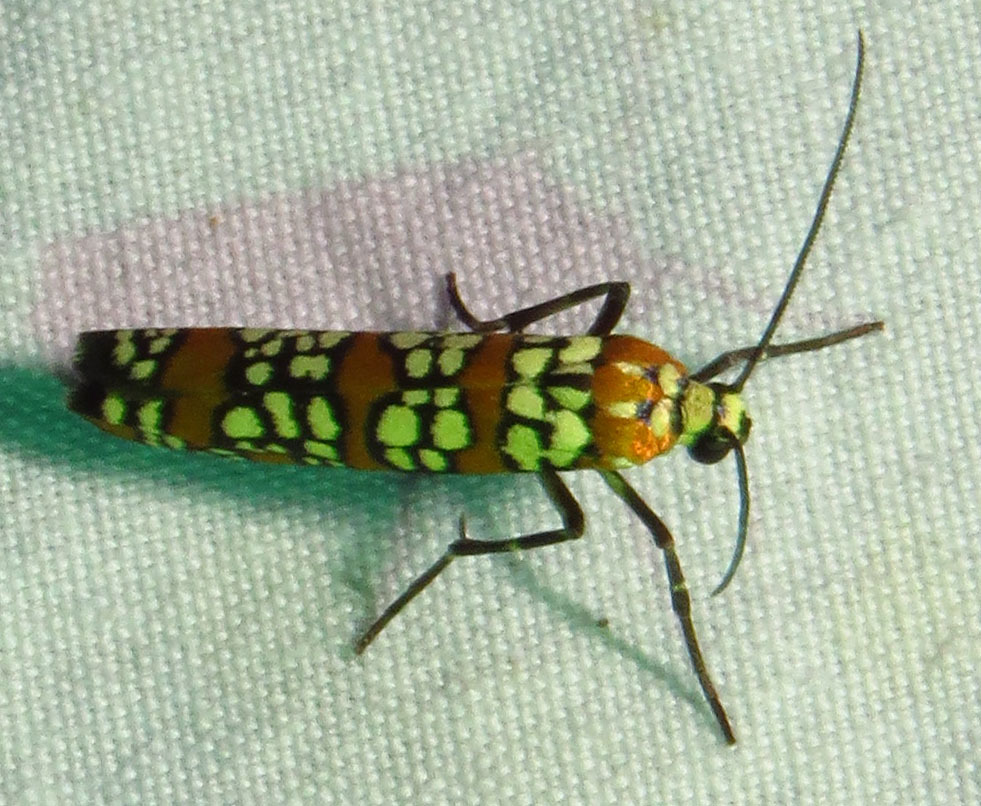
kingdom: Animalia
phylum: Arthropoda
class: Insecta
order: Lepidoptera
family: Attevidae
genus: Atteva
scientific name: Atteva punctella
